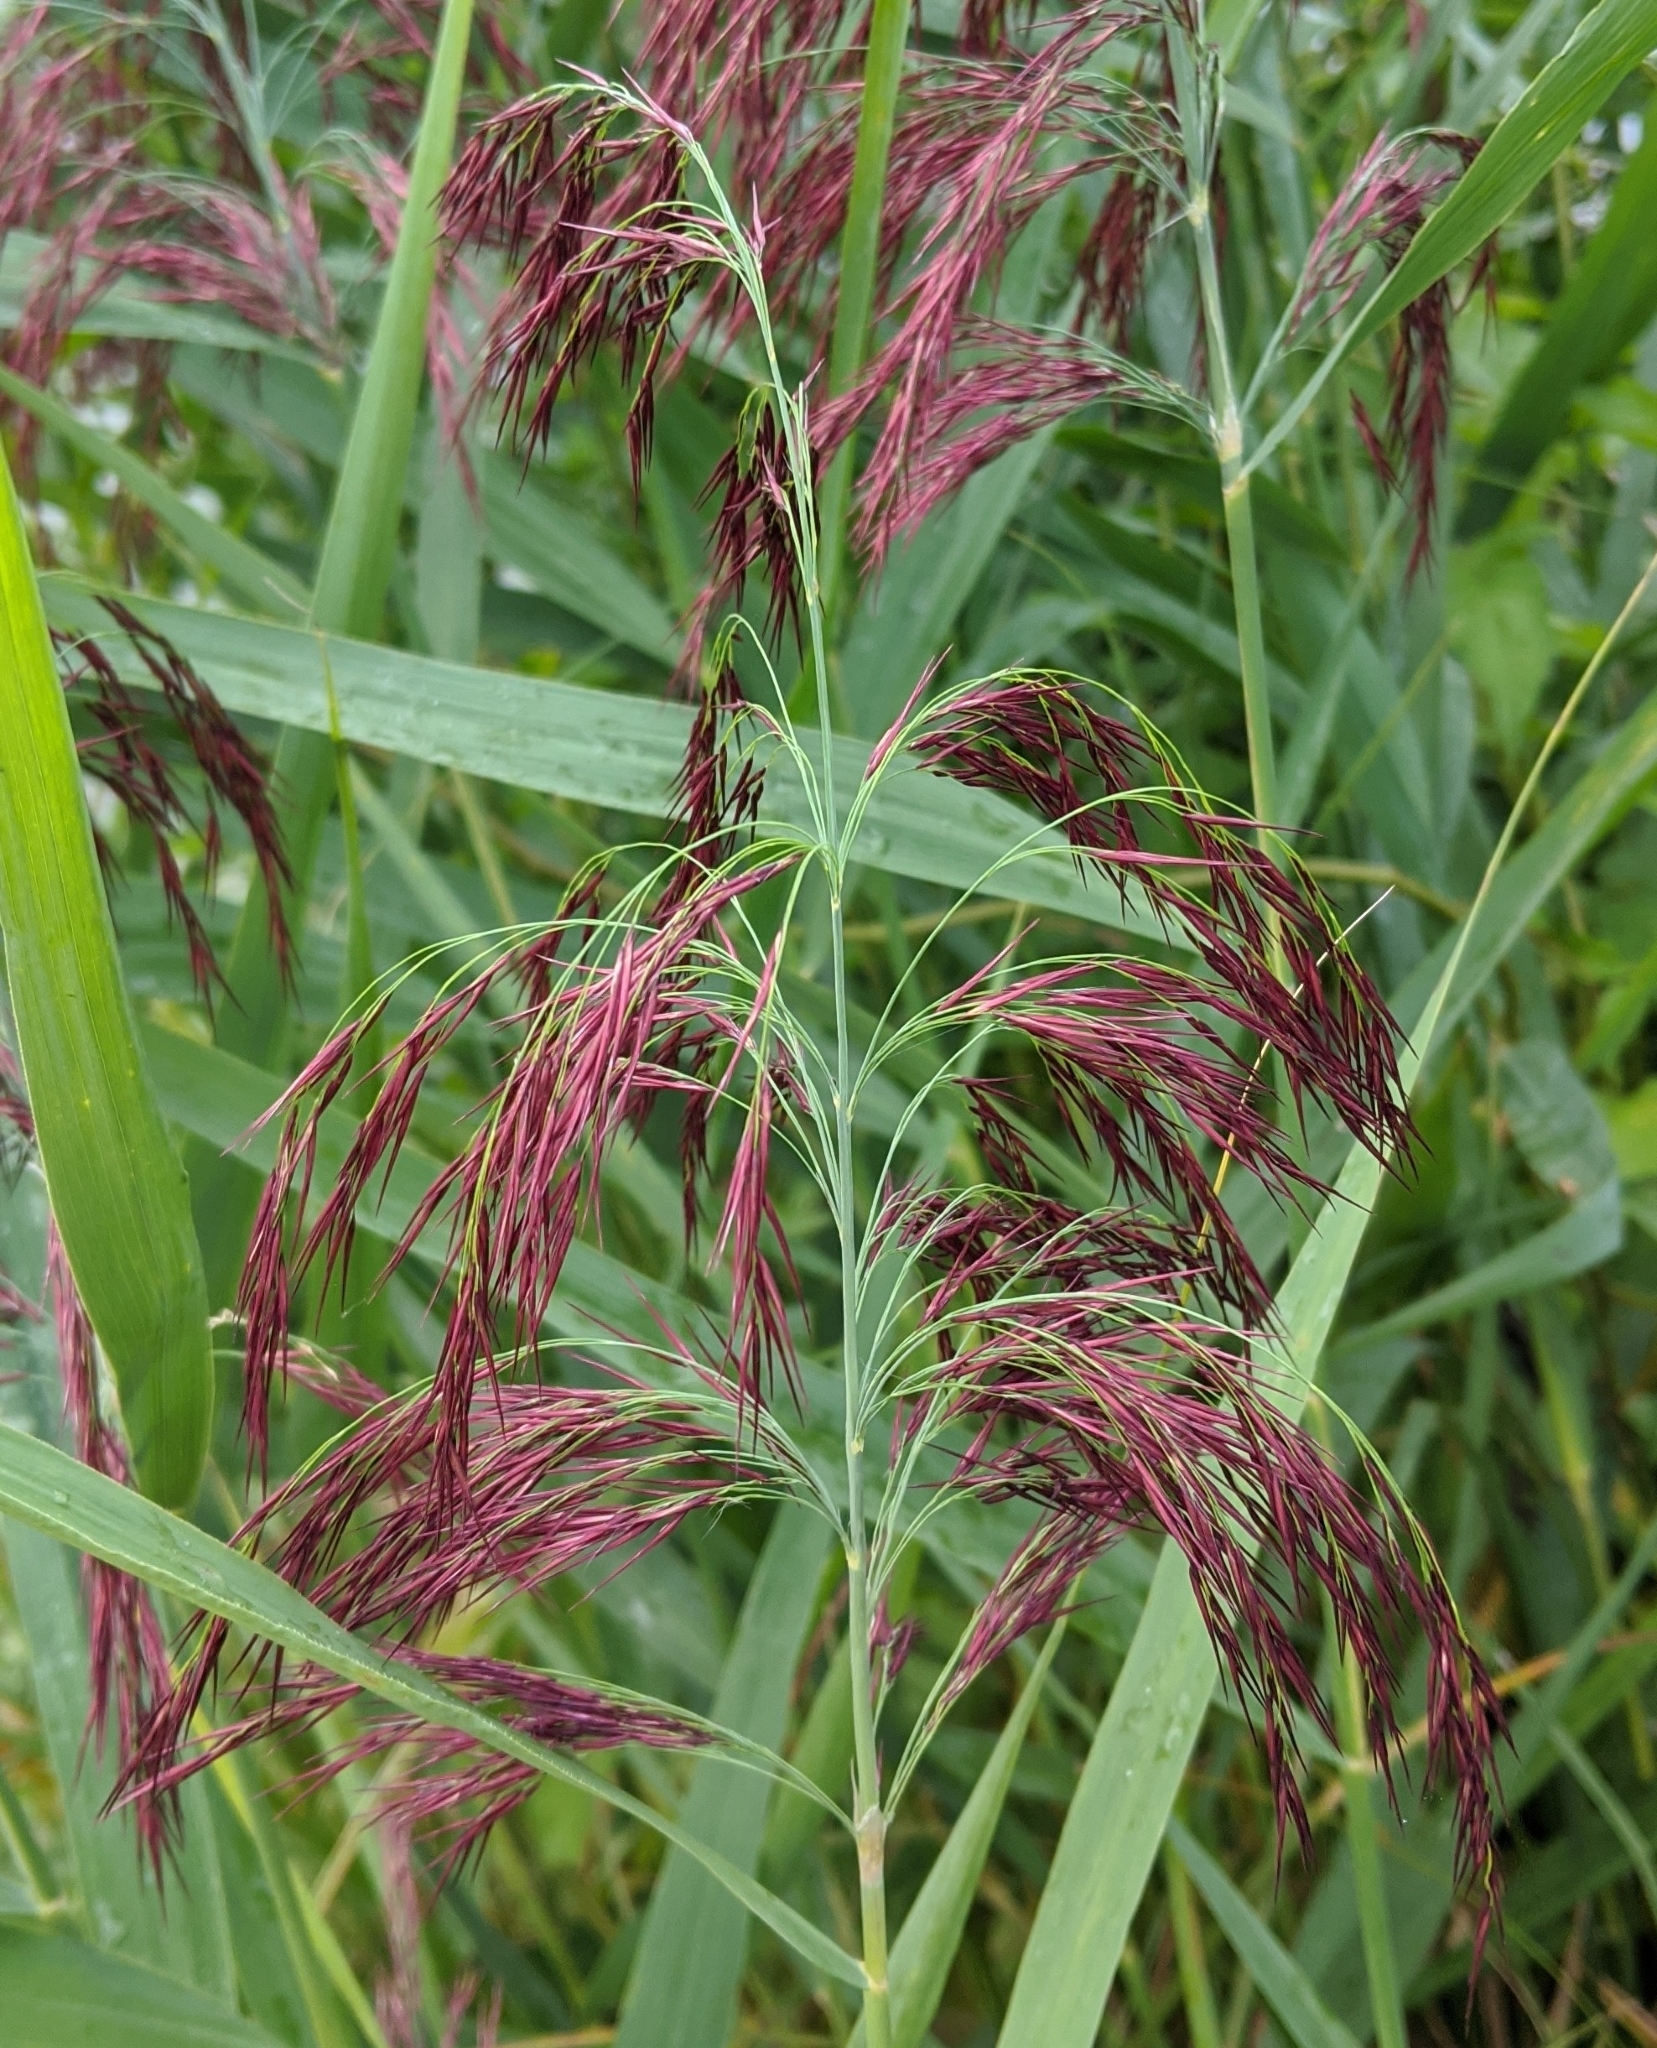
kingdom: Plantae
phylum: Tracheophyta
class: Liliopsida
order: Poales
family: Poaceae
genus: Phragmites
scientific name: Phragmites australis
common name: Common reed
